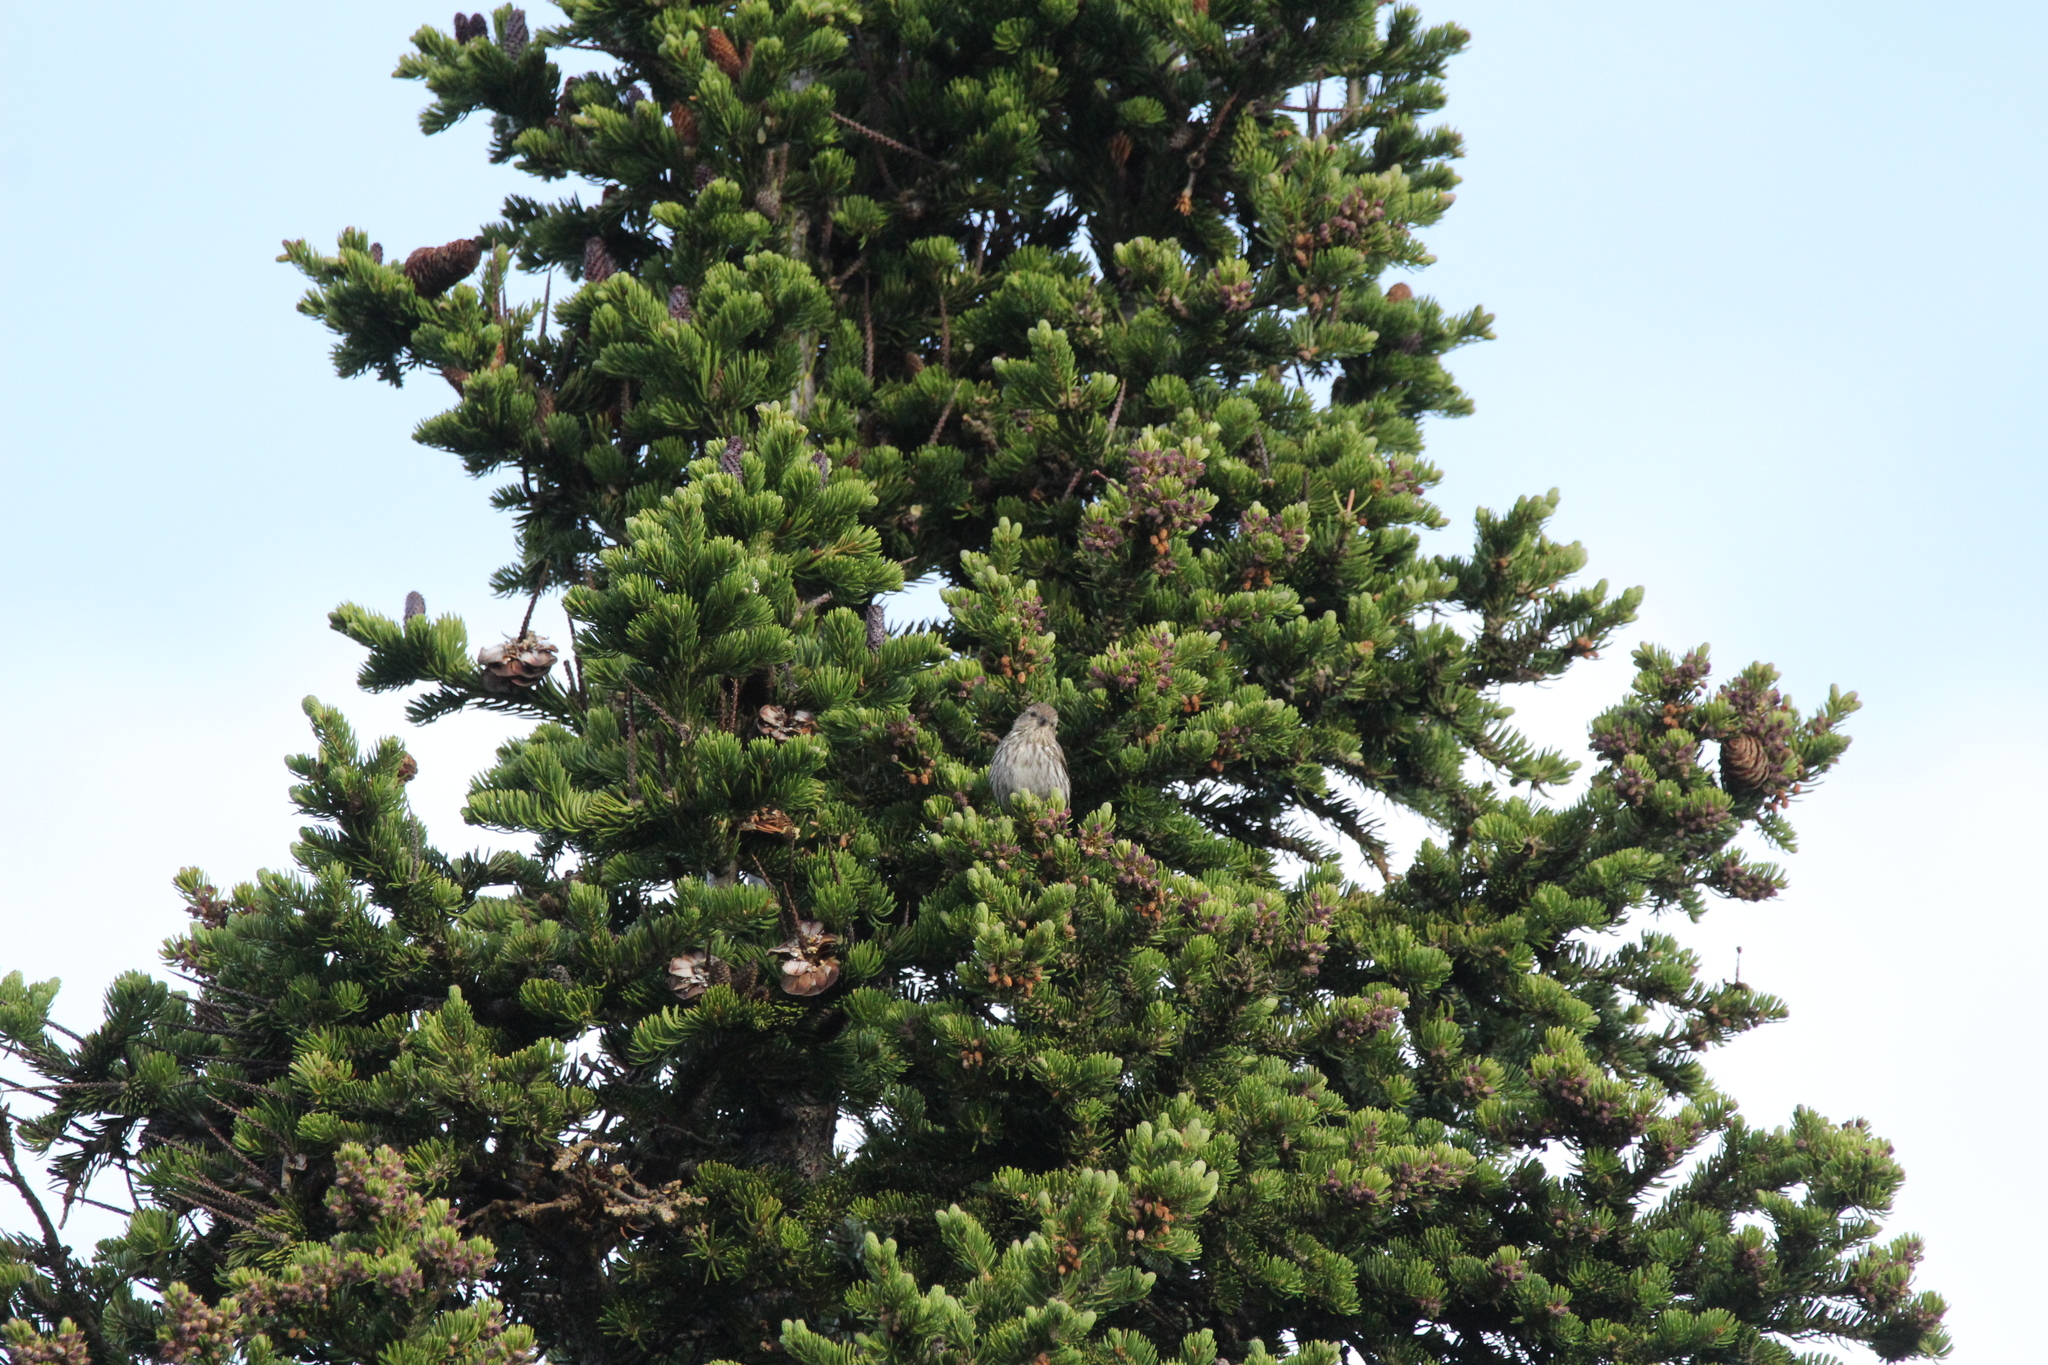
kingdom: Animalia
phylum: Chordata
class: Aves
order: Passeriformes
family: Fringillidae
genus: Spinus
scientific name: Spinus pinus
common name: Pine siskin
